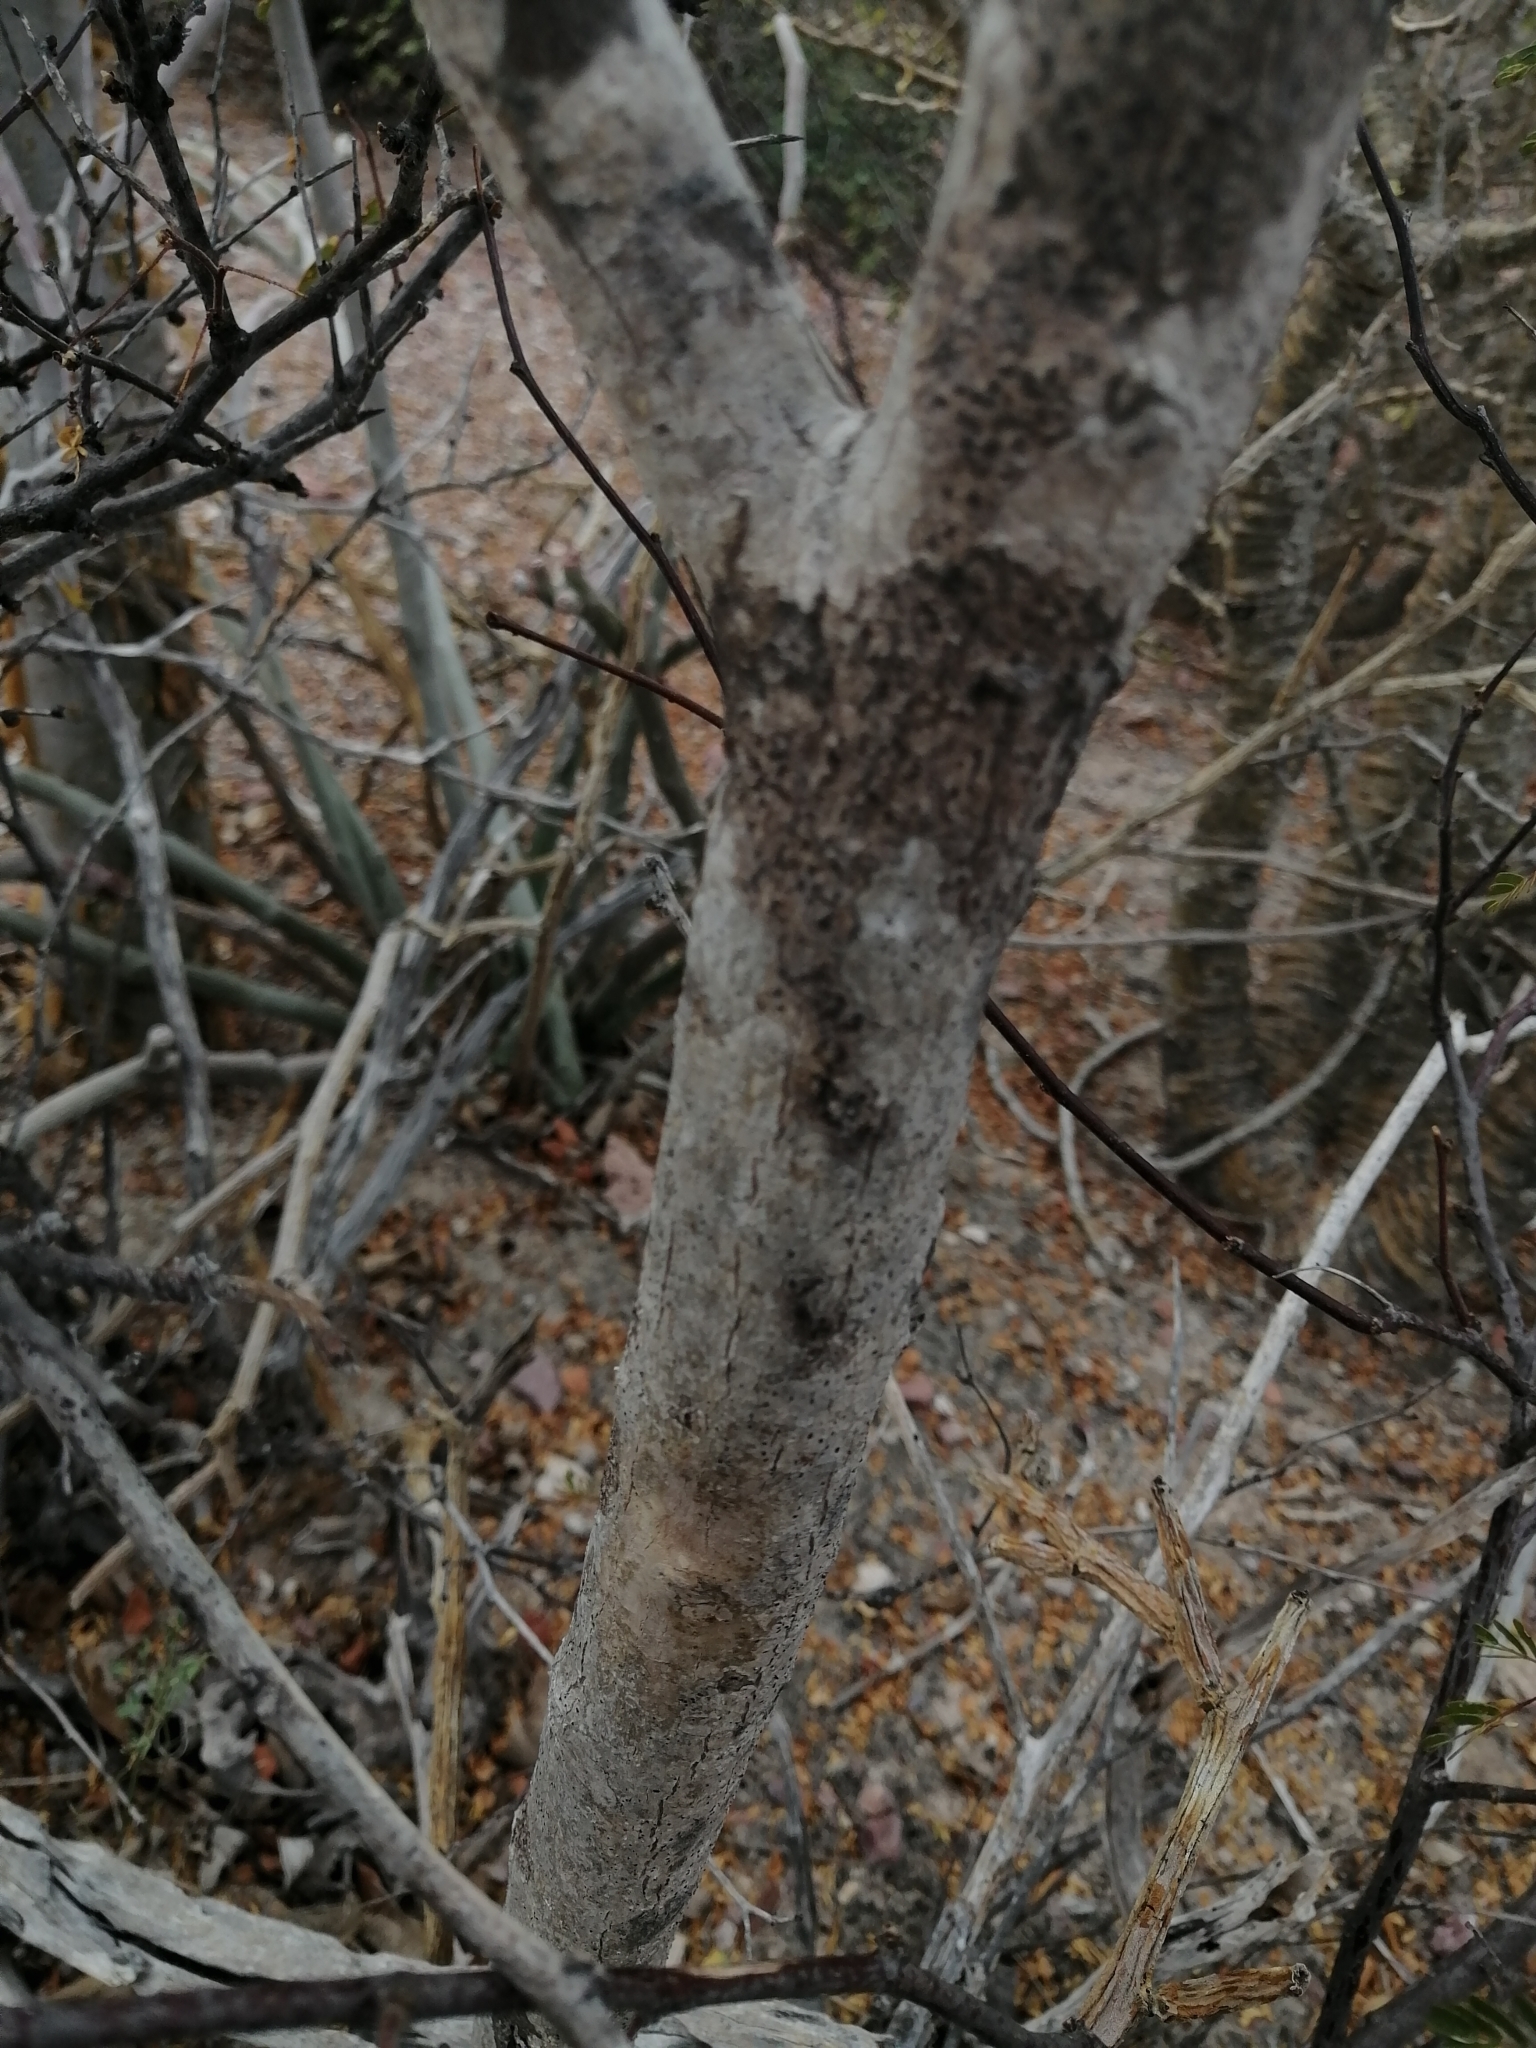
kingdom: Plantae
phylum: Tracheophyta
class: Magnoliopsida
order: Boraginales
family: Ehretiaceae
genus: Bourreria
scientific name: Bourreria sonorae
